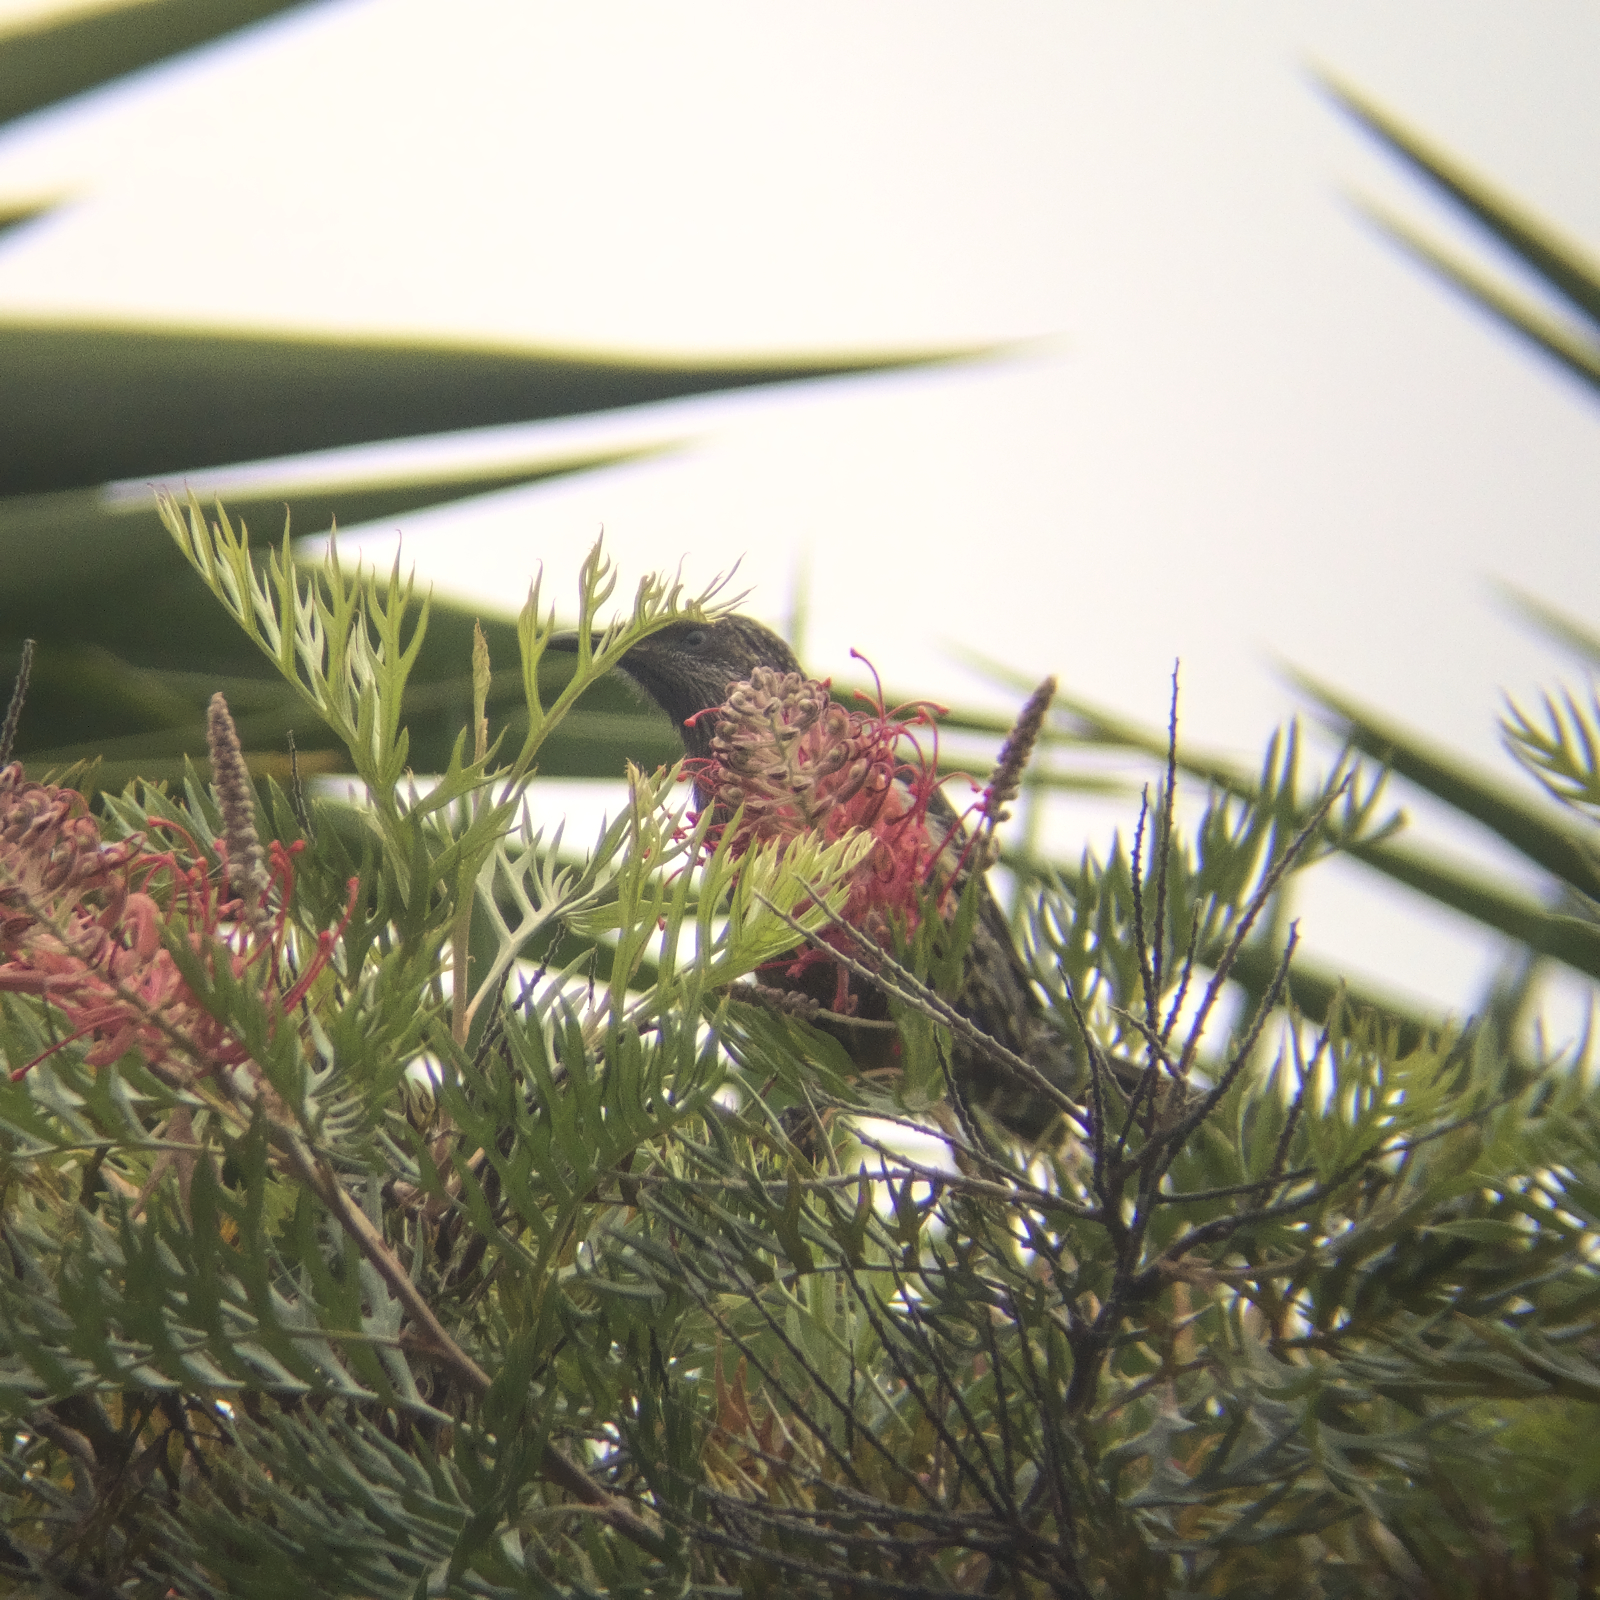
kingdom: Animalia
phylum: Chordata
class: Aves
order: Passeriformes
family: Meliphagidae
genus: Anthochaera
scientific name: Anthochaera chrysoptera
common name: Little wattlebird
